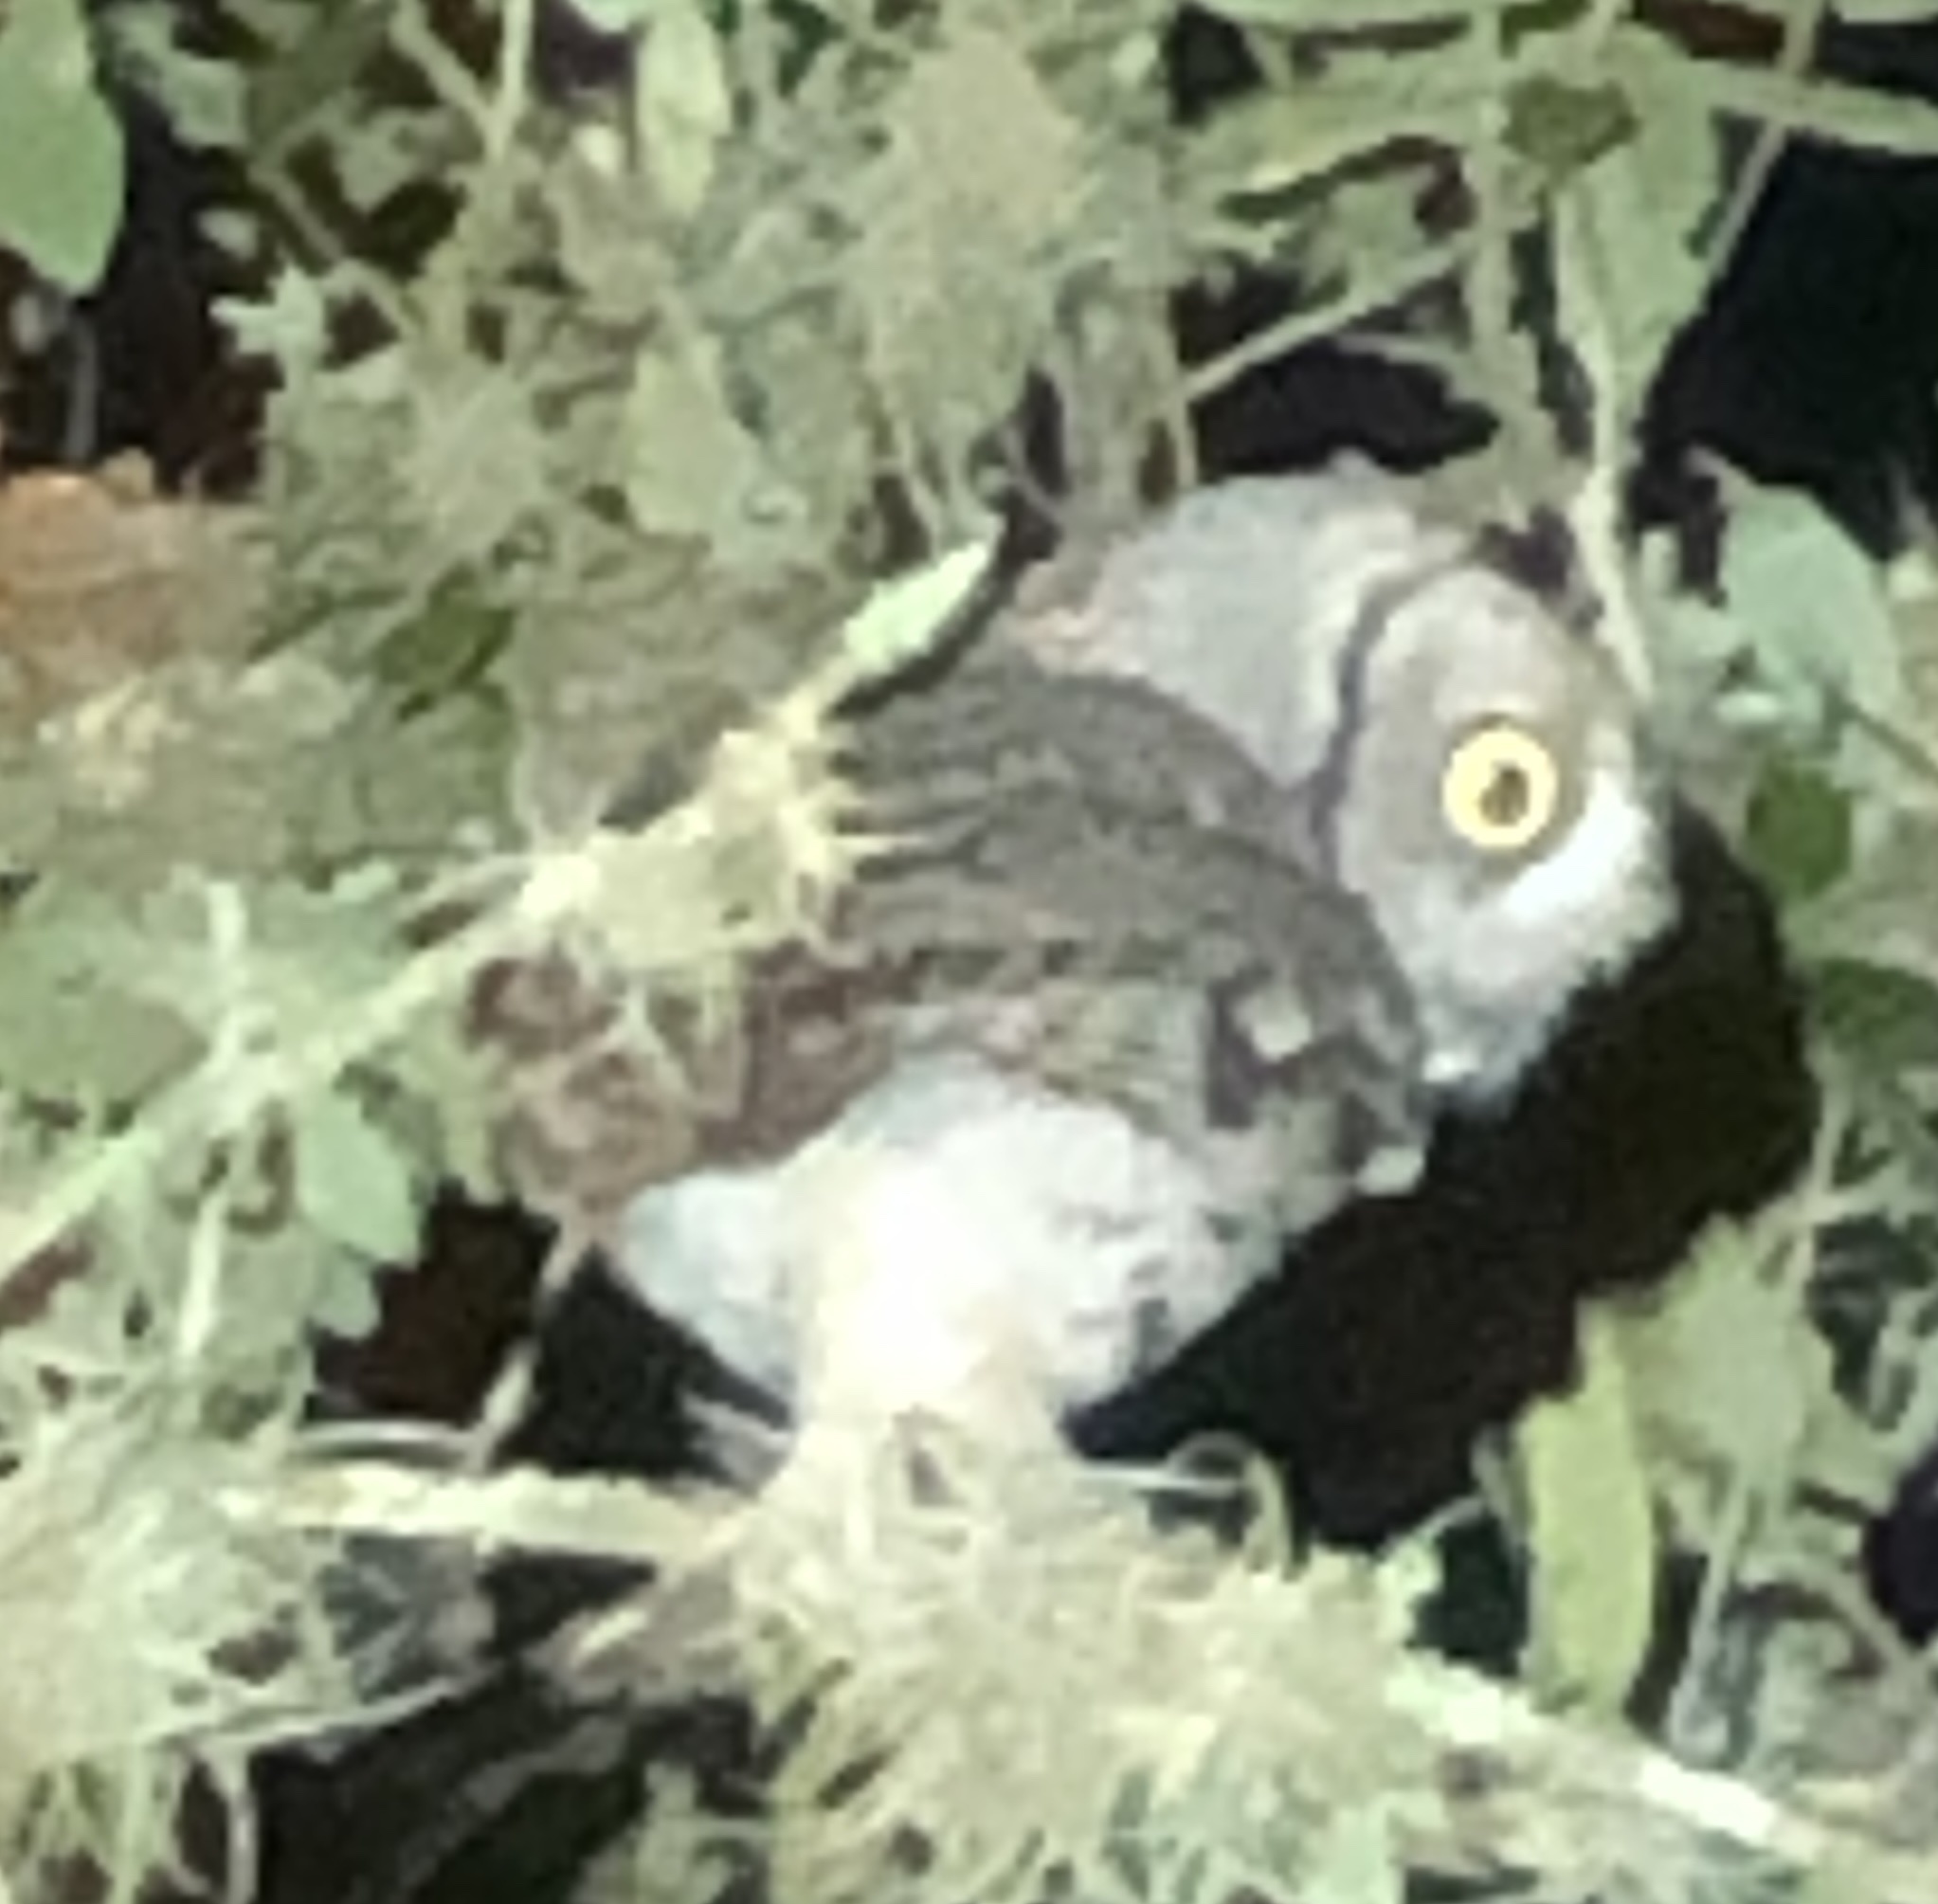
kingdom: Animalia
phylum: Chordata
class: Aves
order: Strigiformes
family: Strigidae
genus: Megascops
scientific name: Megascops asio
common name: Eastern screech-owl
